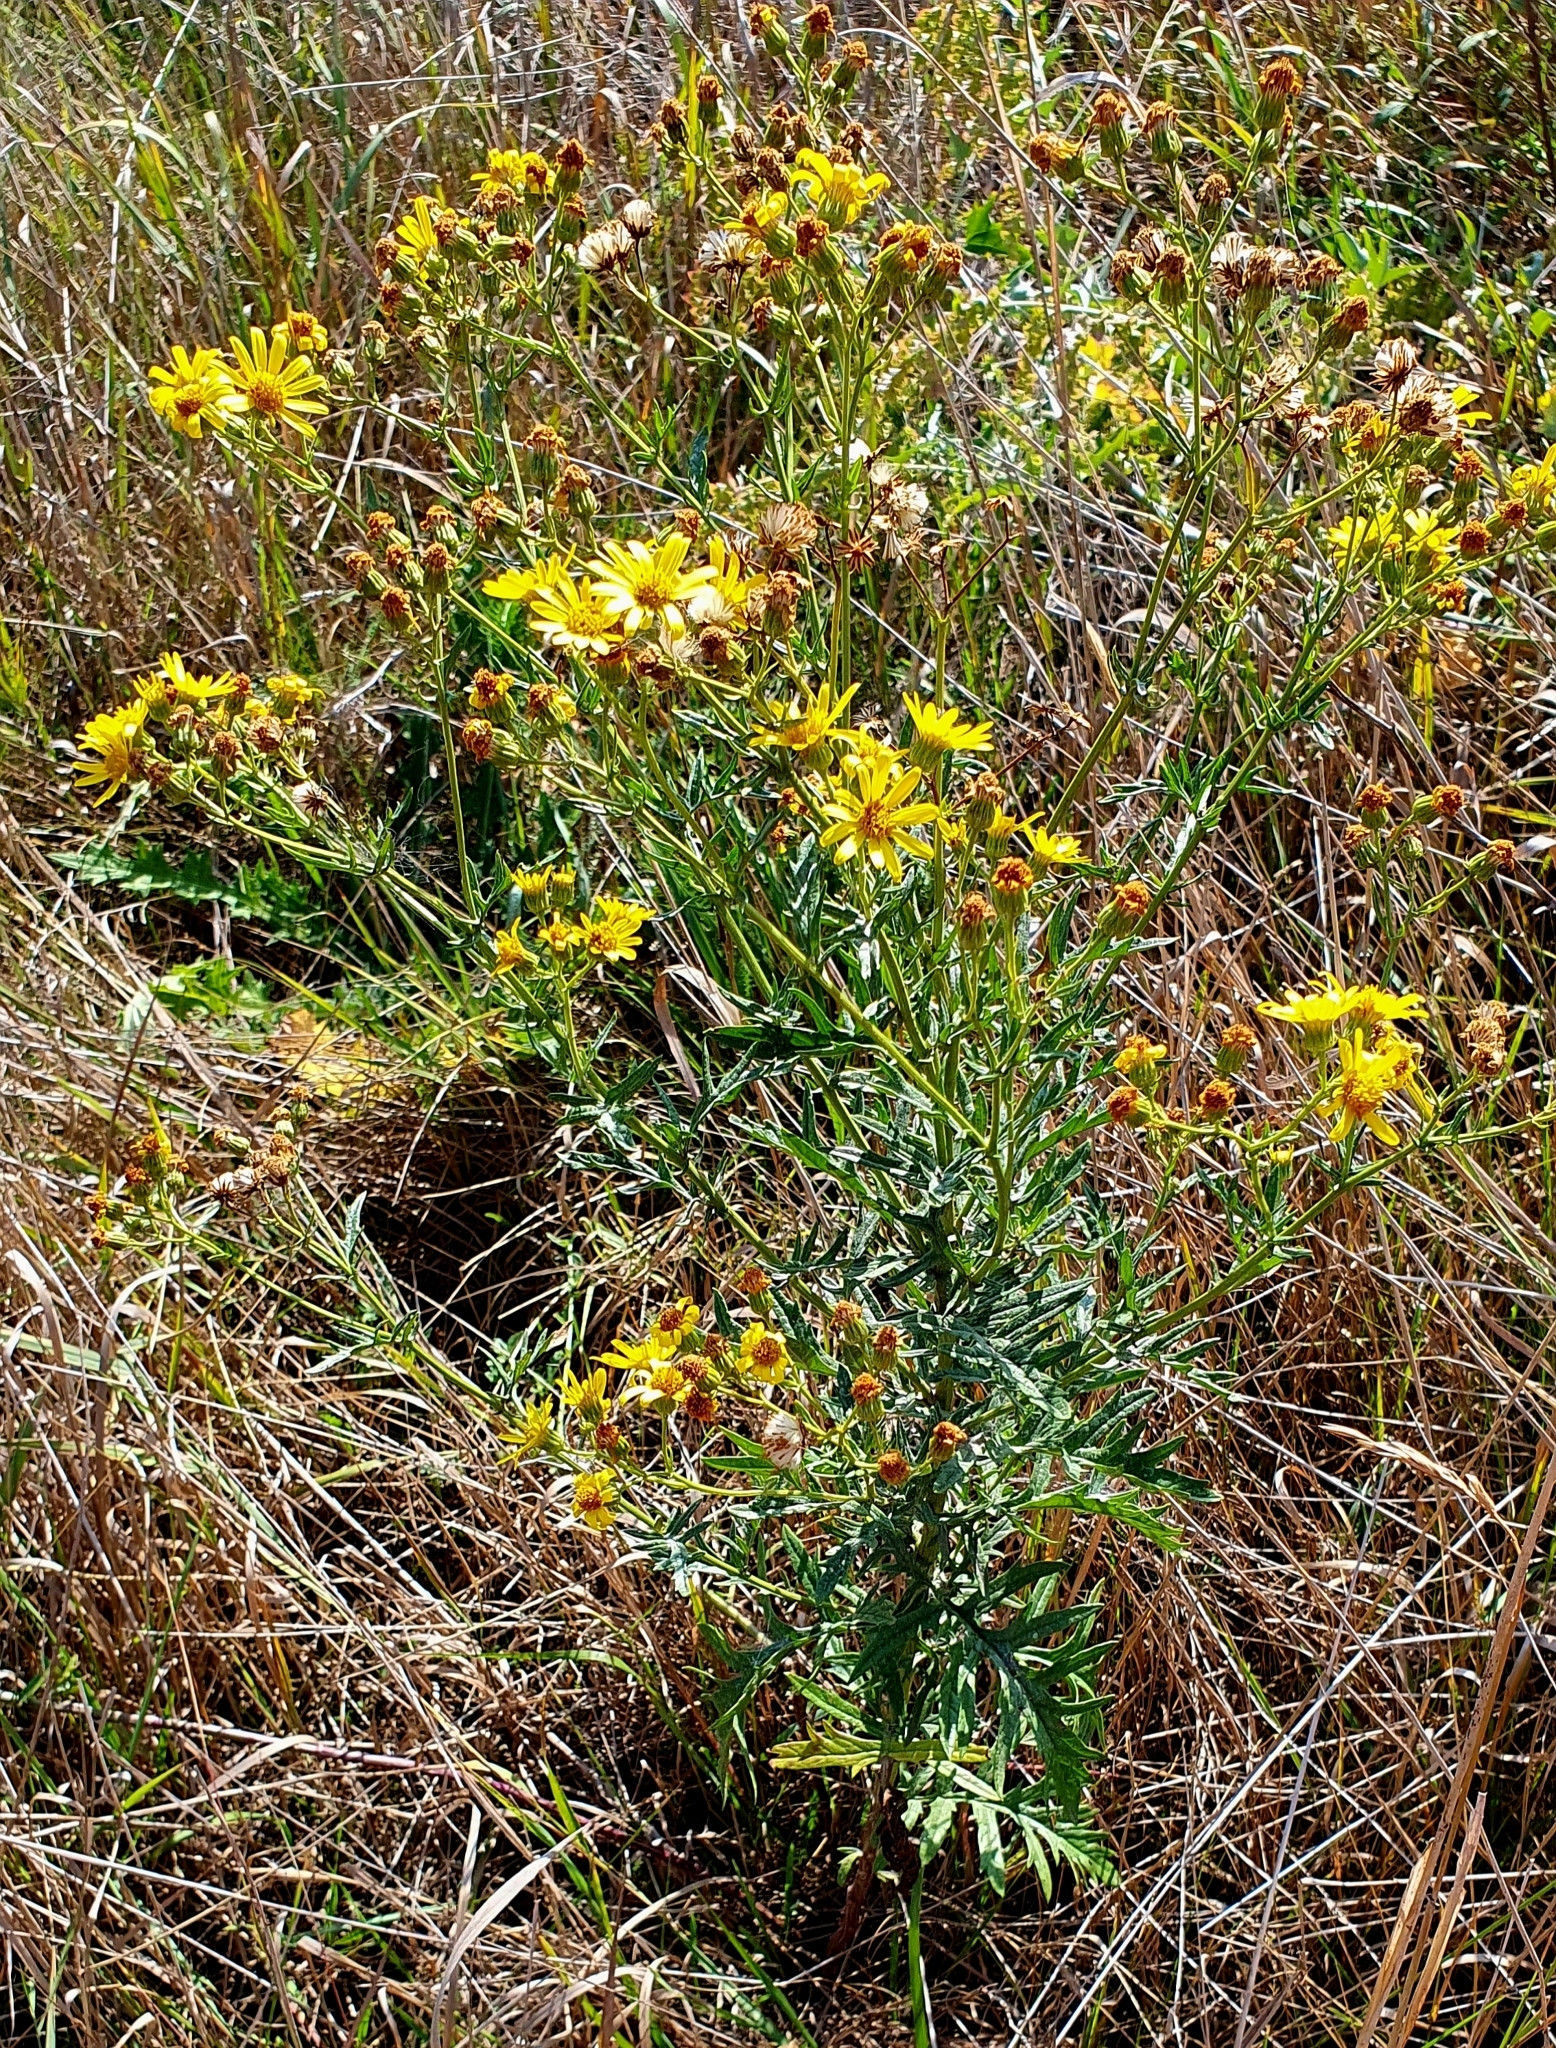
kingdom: Plantae
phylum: Tracheophyta
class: Magnoliopsida
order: Asterales
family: Asteraceae
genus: Jacobaea
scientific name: Jacobaea erucifolia
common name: Hoary ragwort
